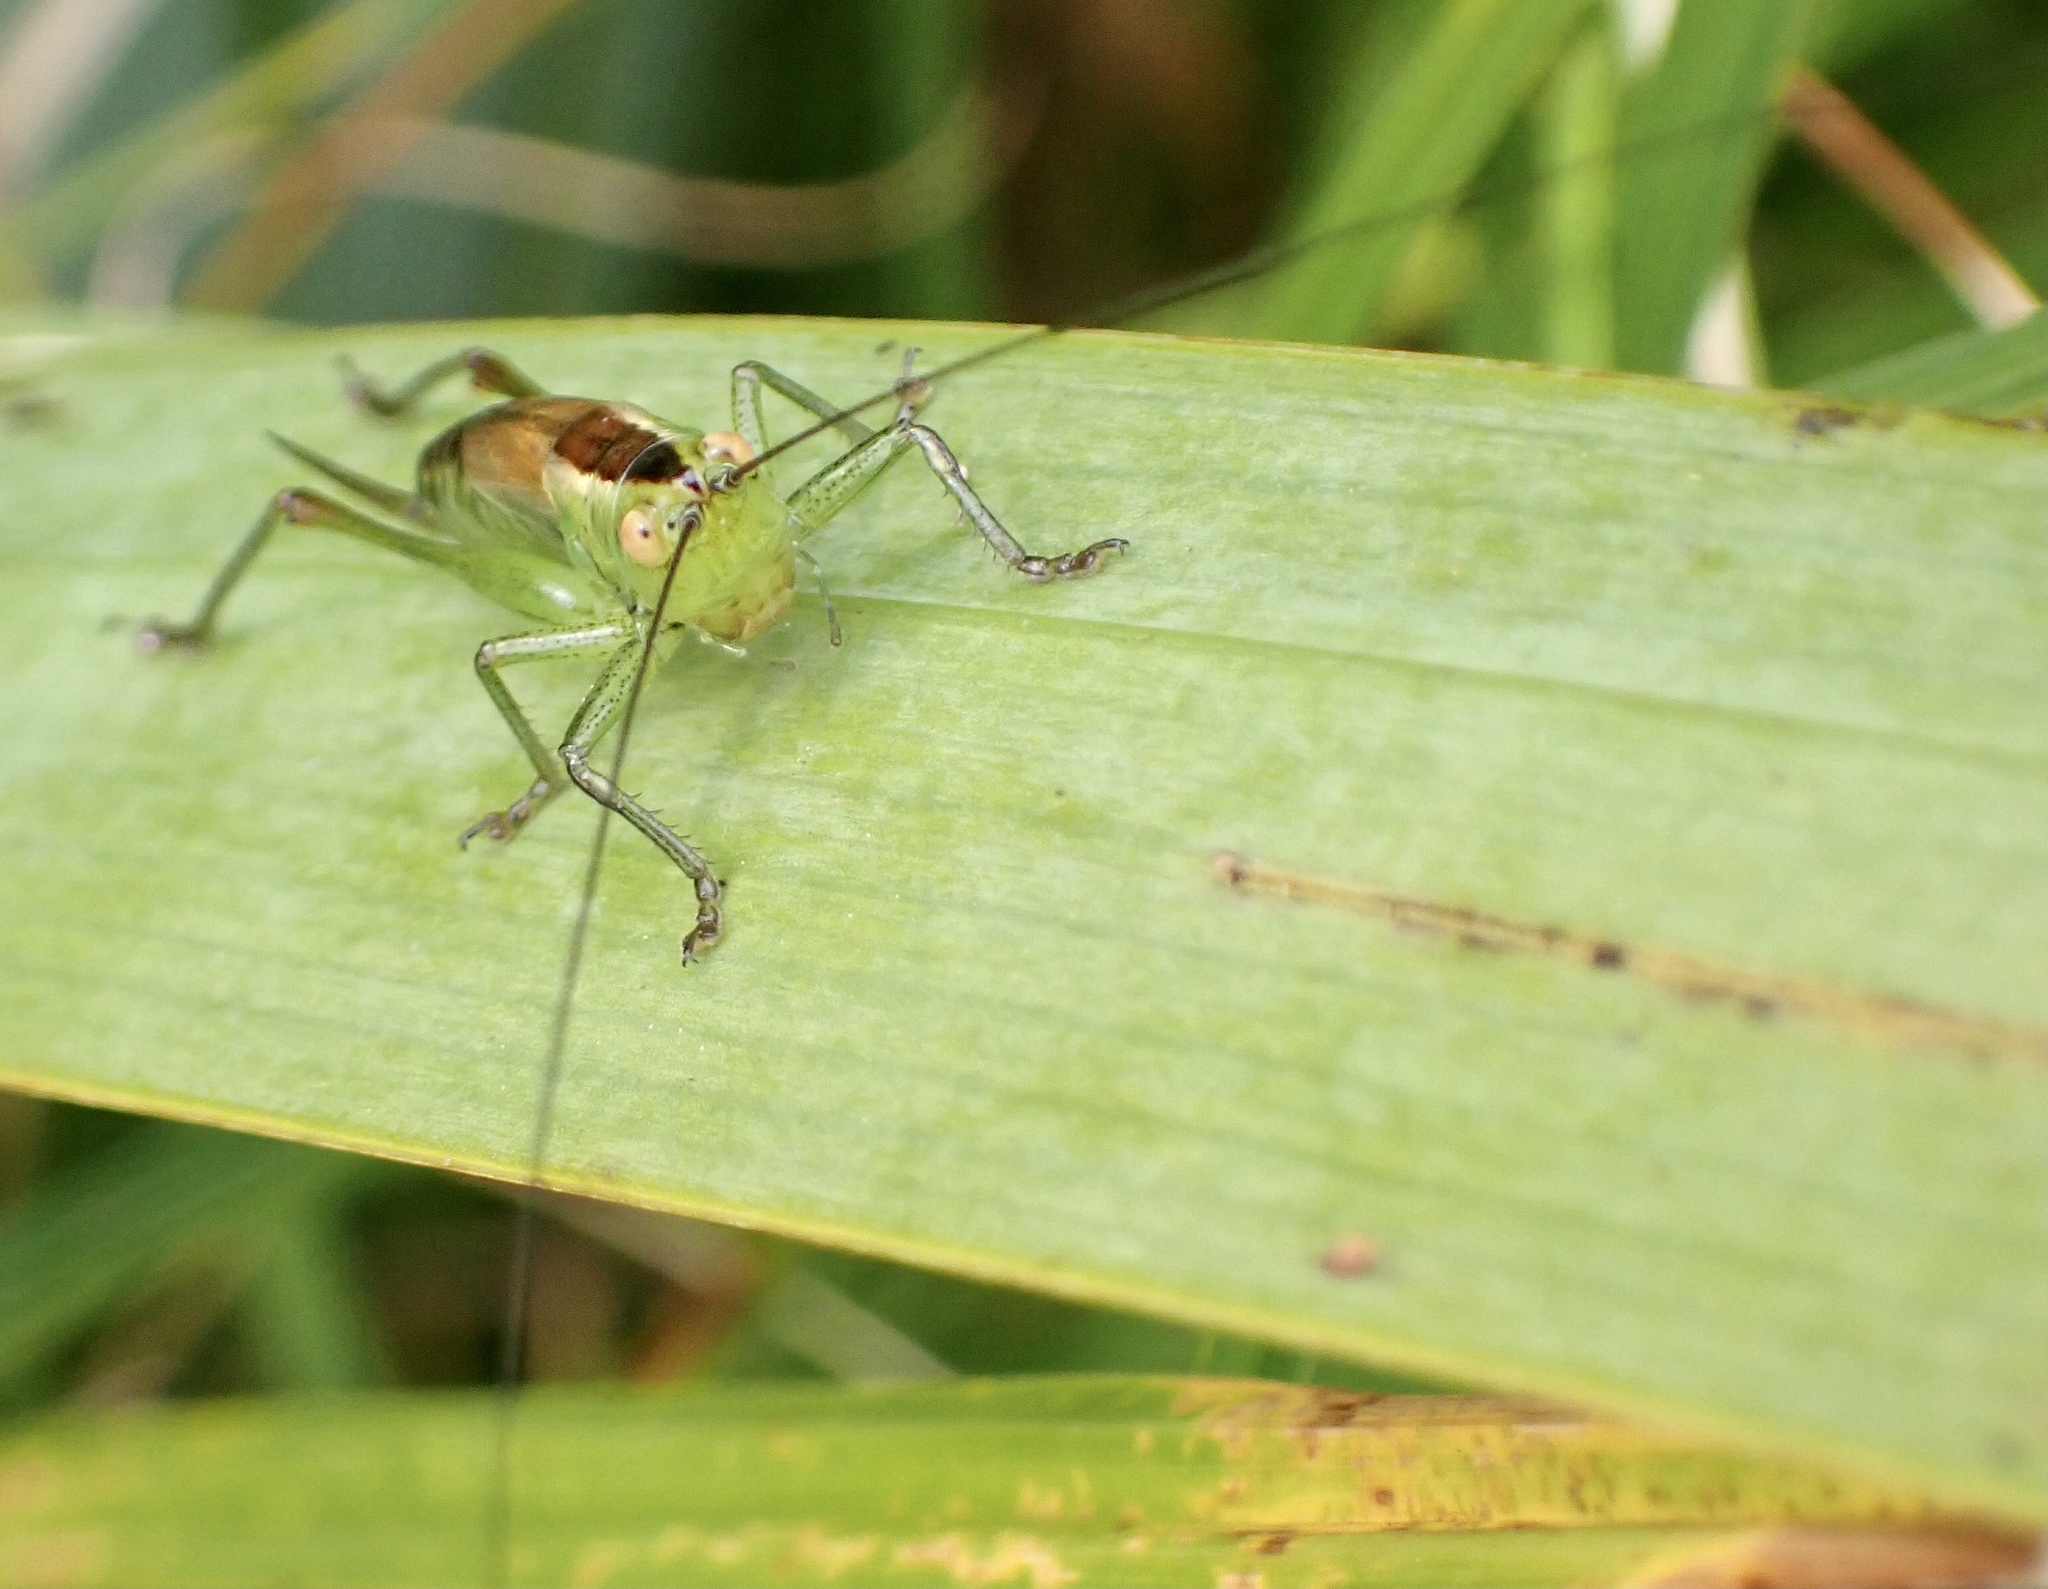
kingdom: Animalia
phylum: Arthropoda
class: Insecta
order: Orthoptera
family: Tettigoniidae
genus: Conocephalus
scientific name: Conocephalus dorsalis
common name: Short-winged conehead
